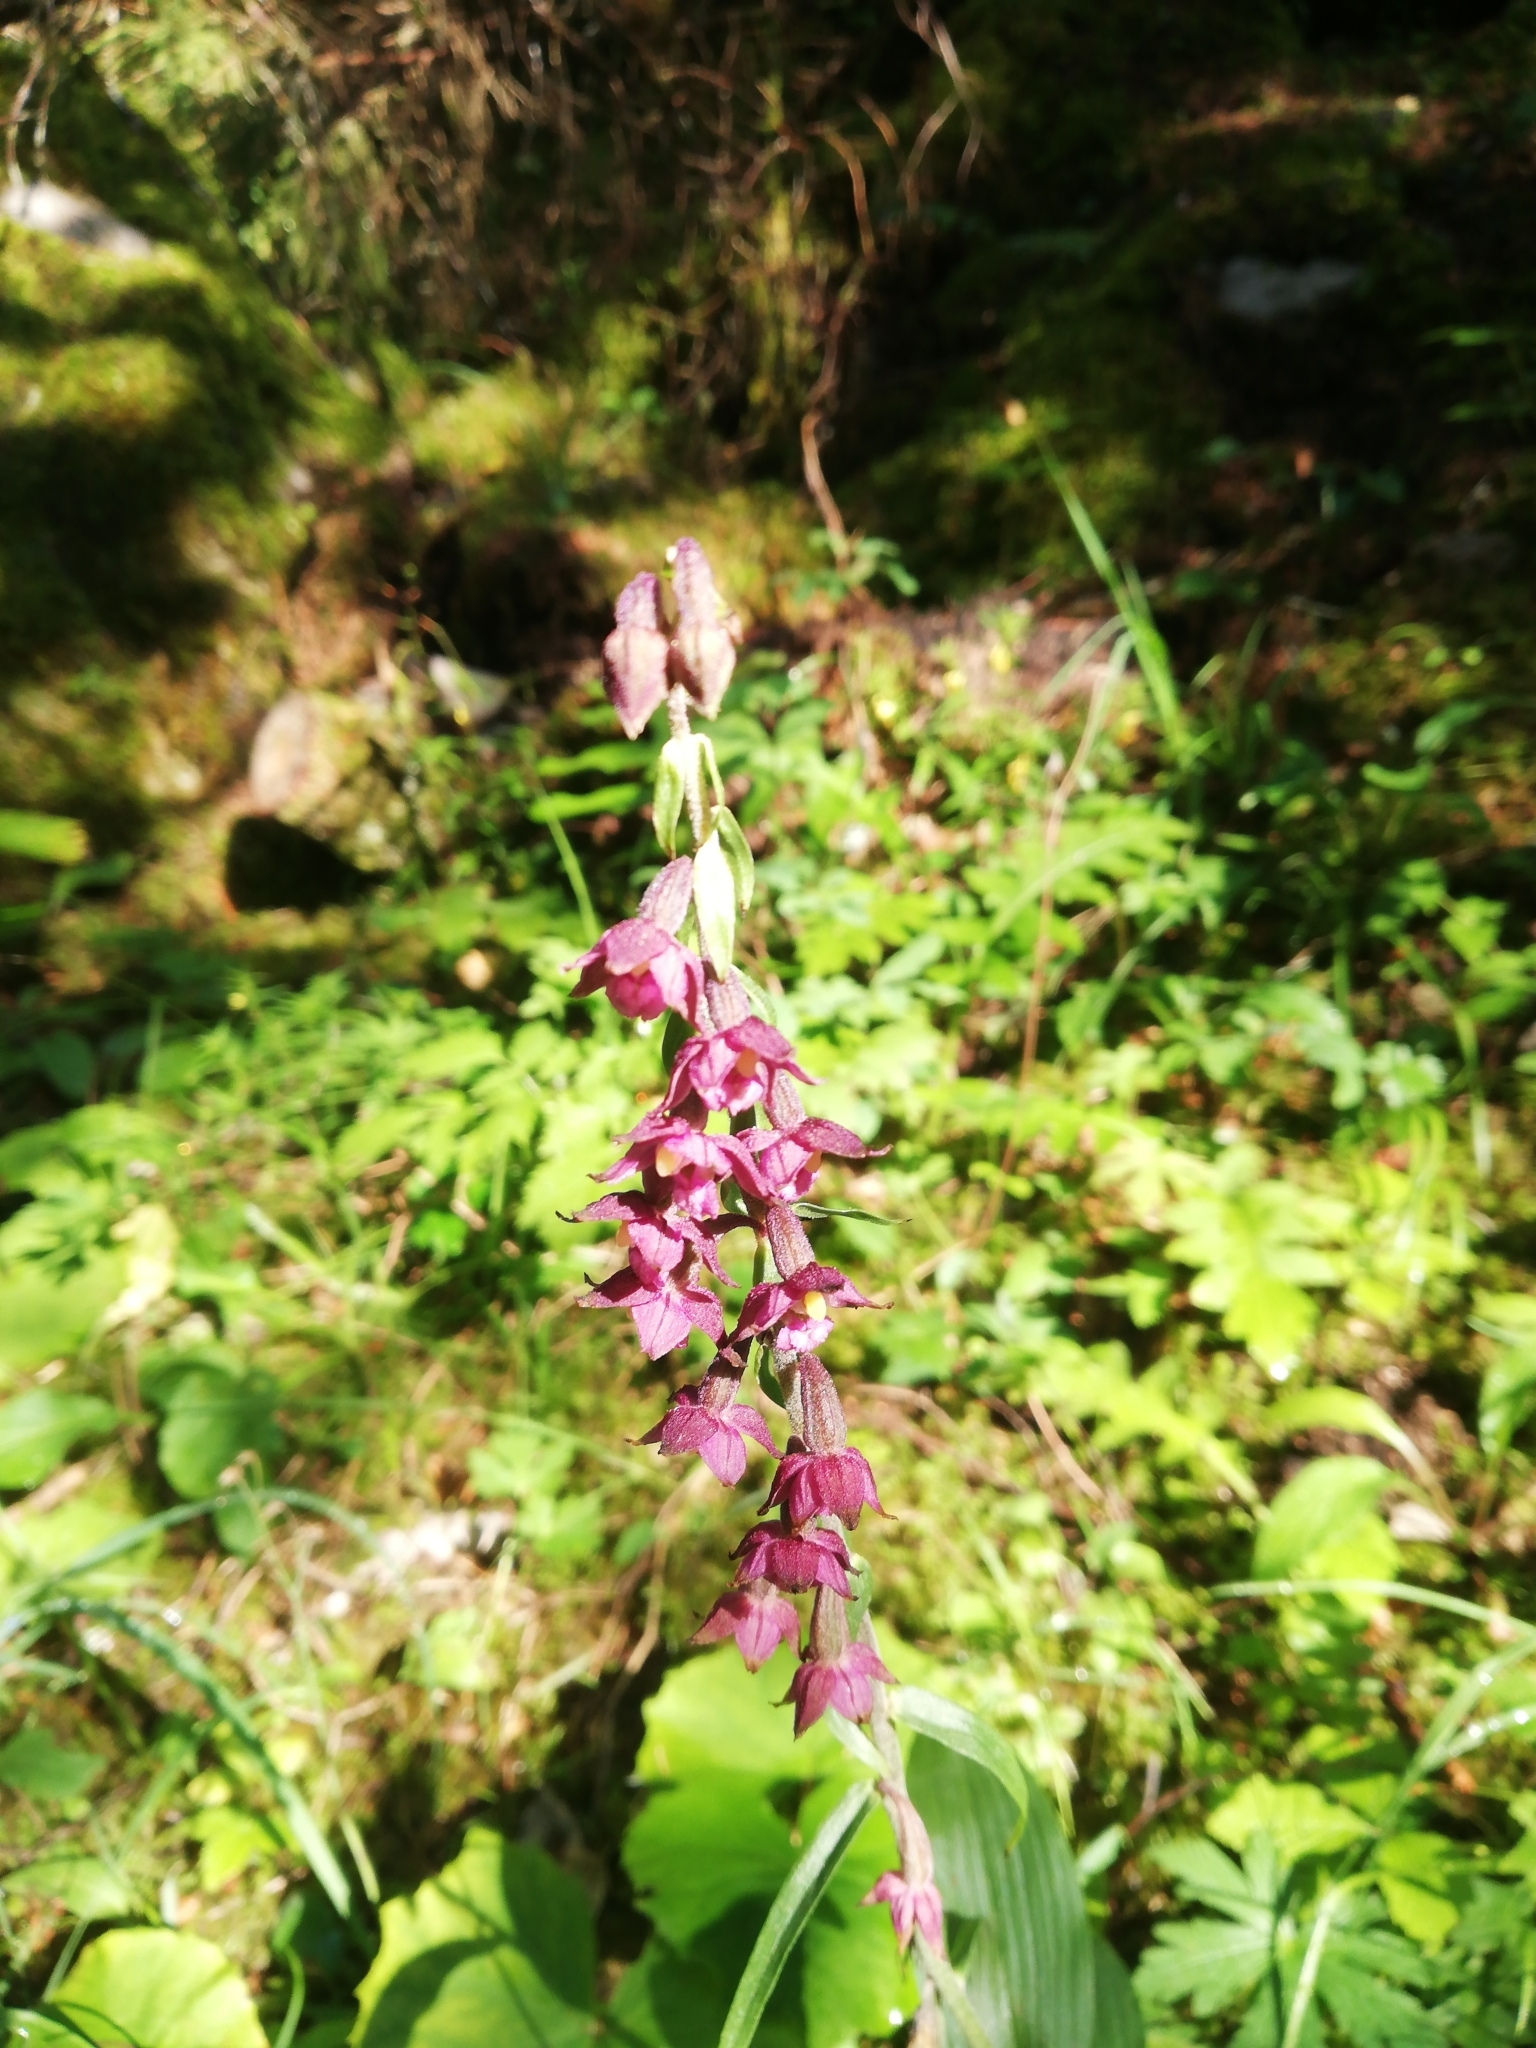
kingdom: Plantae
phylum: Tracheophyta
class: Liliopsida
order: Asparagales
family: Orchidaceae
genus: Epipactis
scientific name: Epipactis atrorubens
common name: Dark-red helleborine
